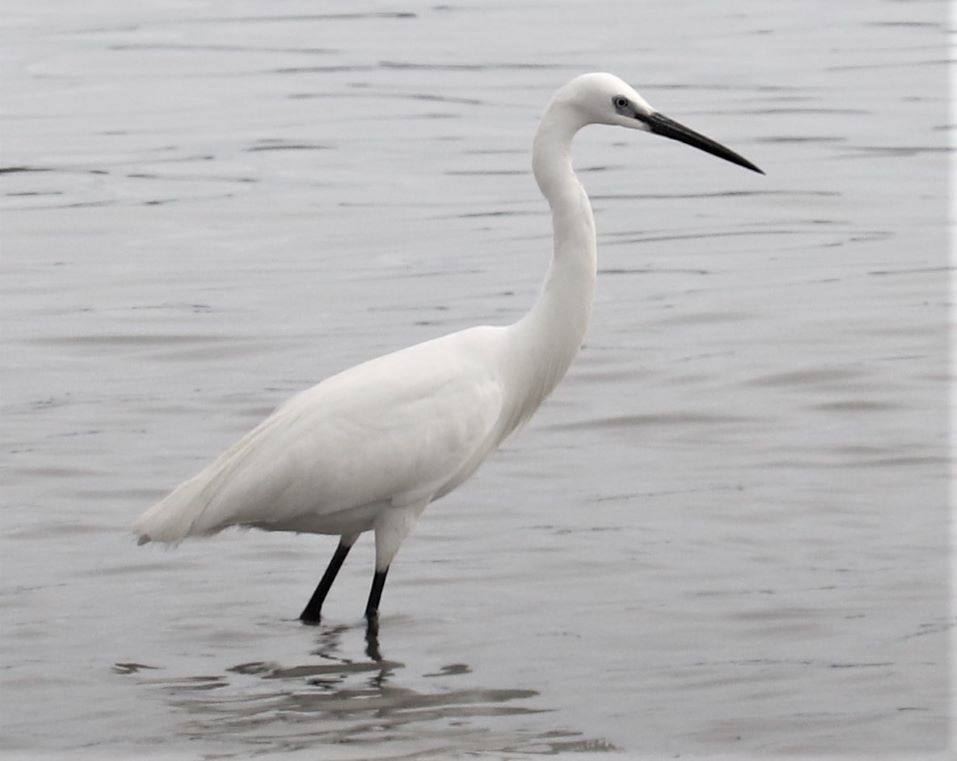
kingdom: Animalia
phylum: Chordata
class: Aves
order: Pelecaniformes
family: Ardeidae
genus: Egretta
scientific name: Egretta garzetta
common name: Little egret
